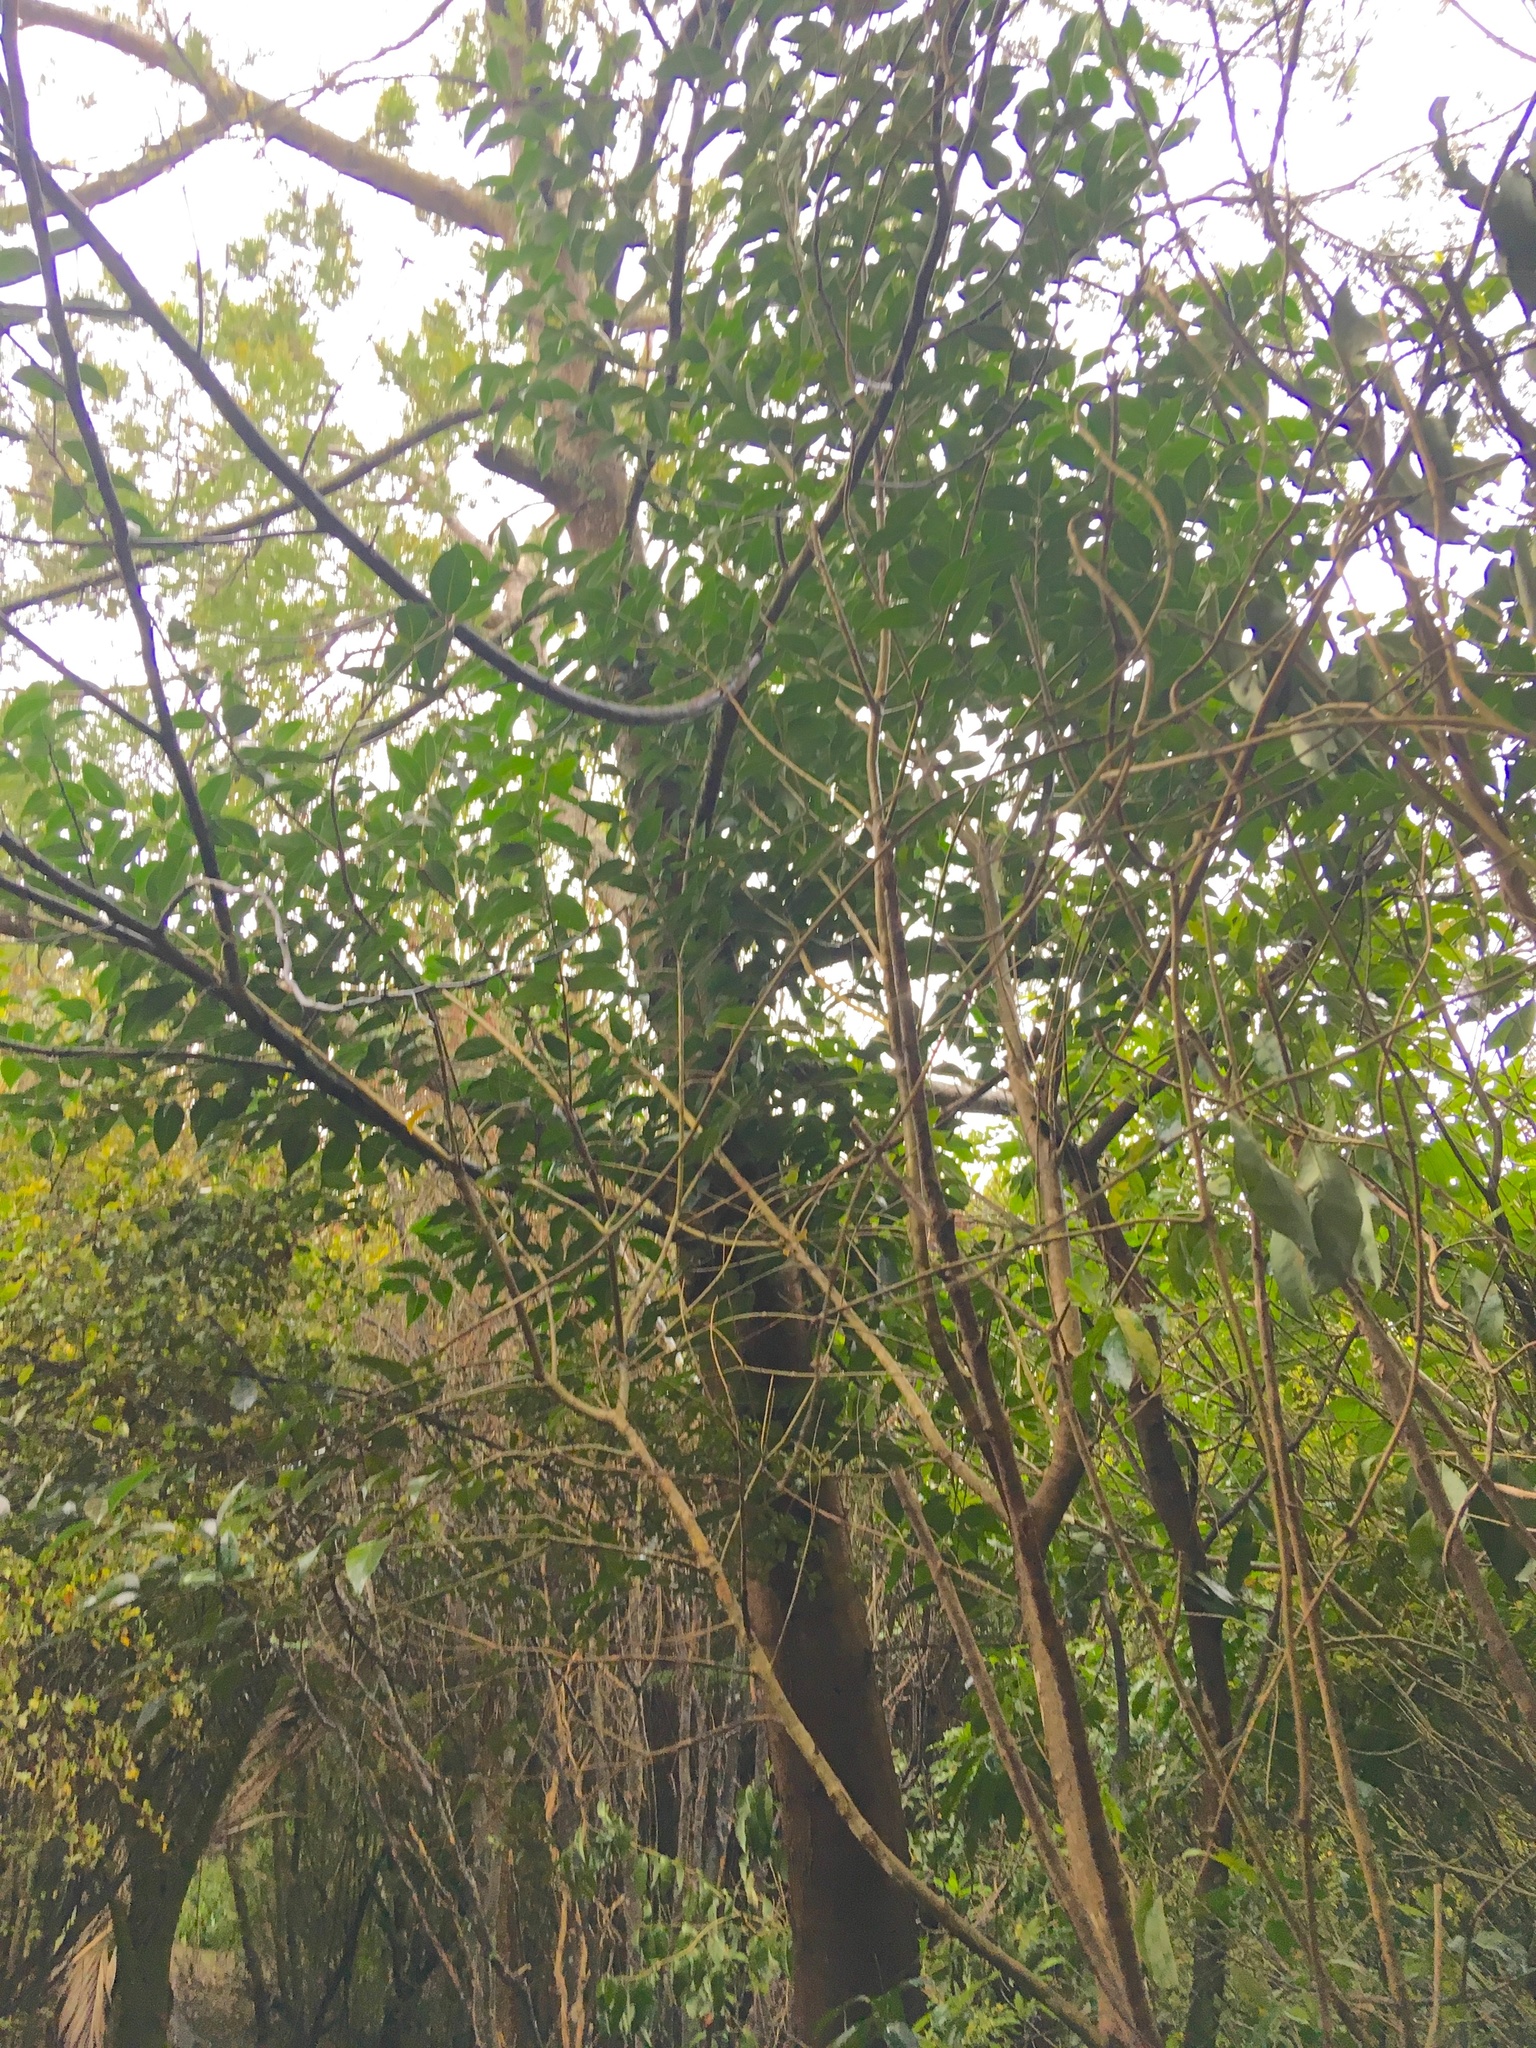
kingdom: Plantae
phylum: Tracheophyta
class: Magnoliopsida
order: Lamiales
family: Oleaceae
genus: Ligustrum
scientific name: Ligustrum lucidum
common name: Glossy privet
